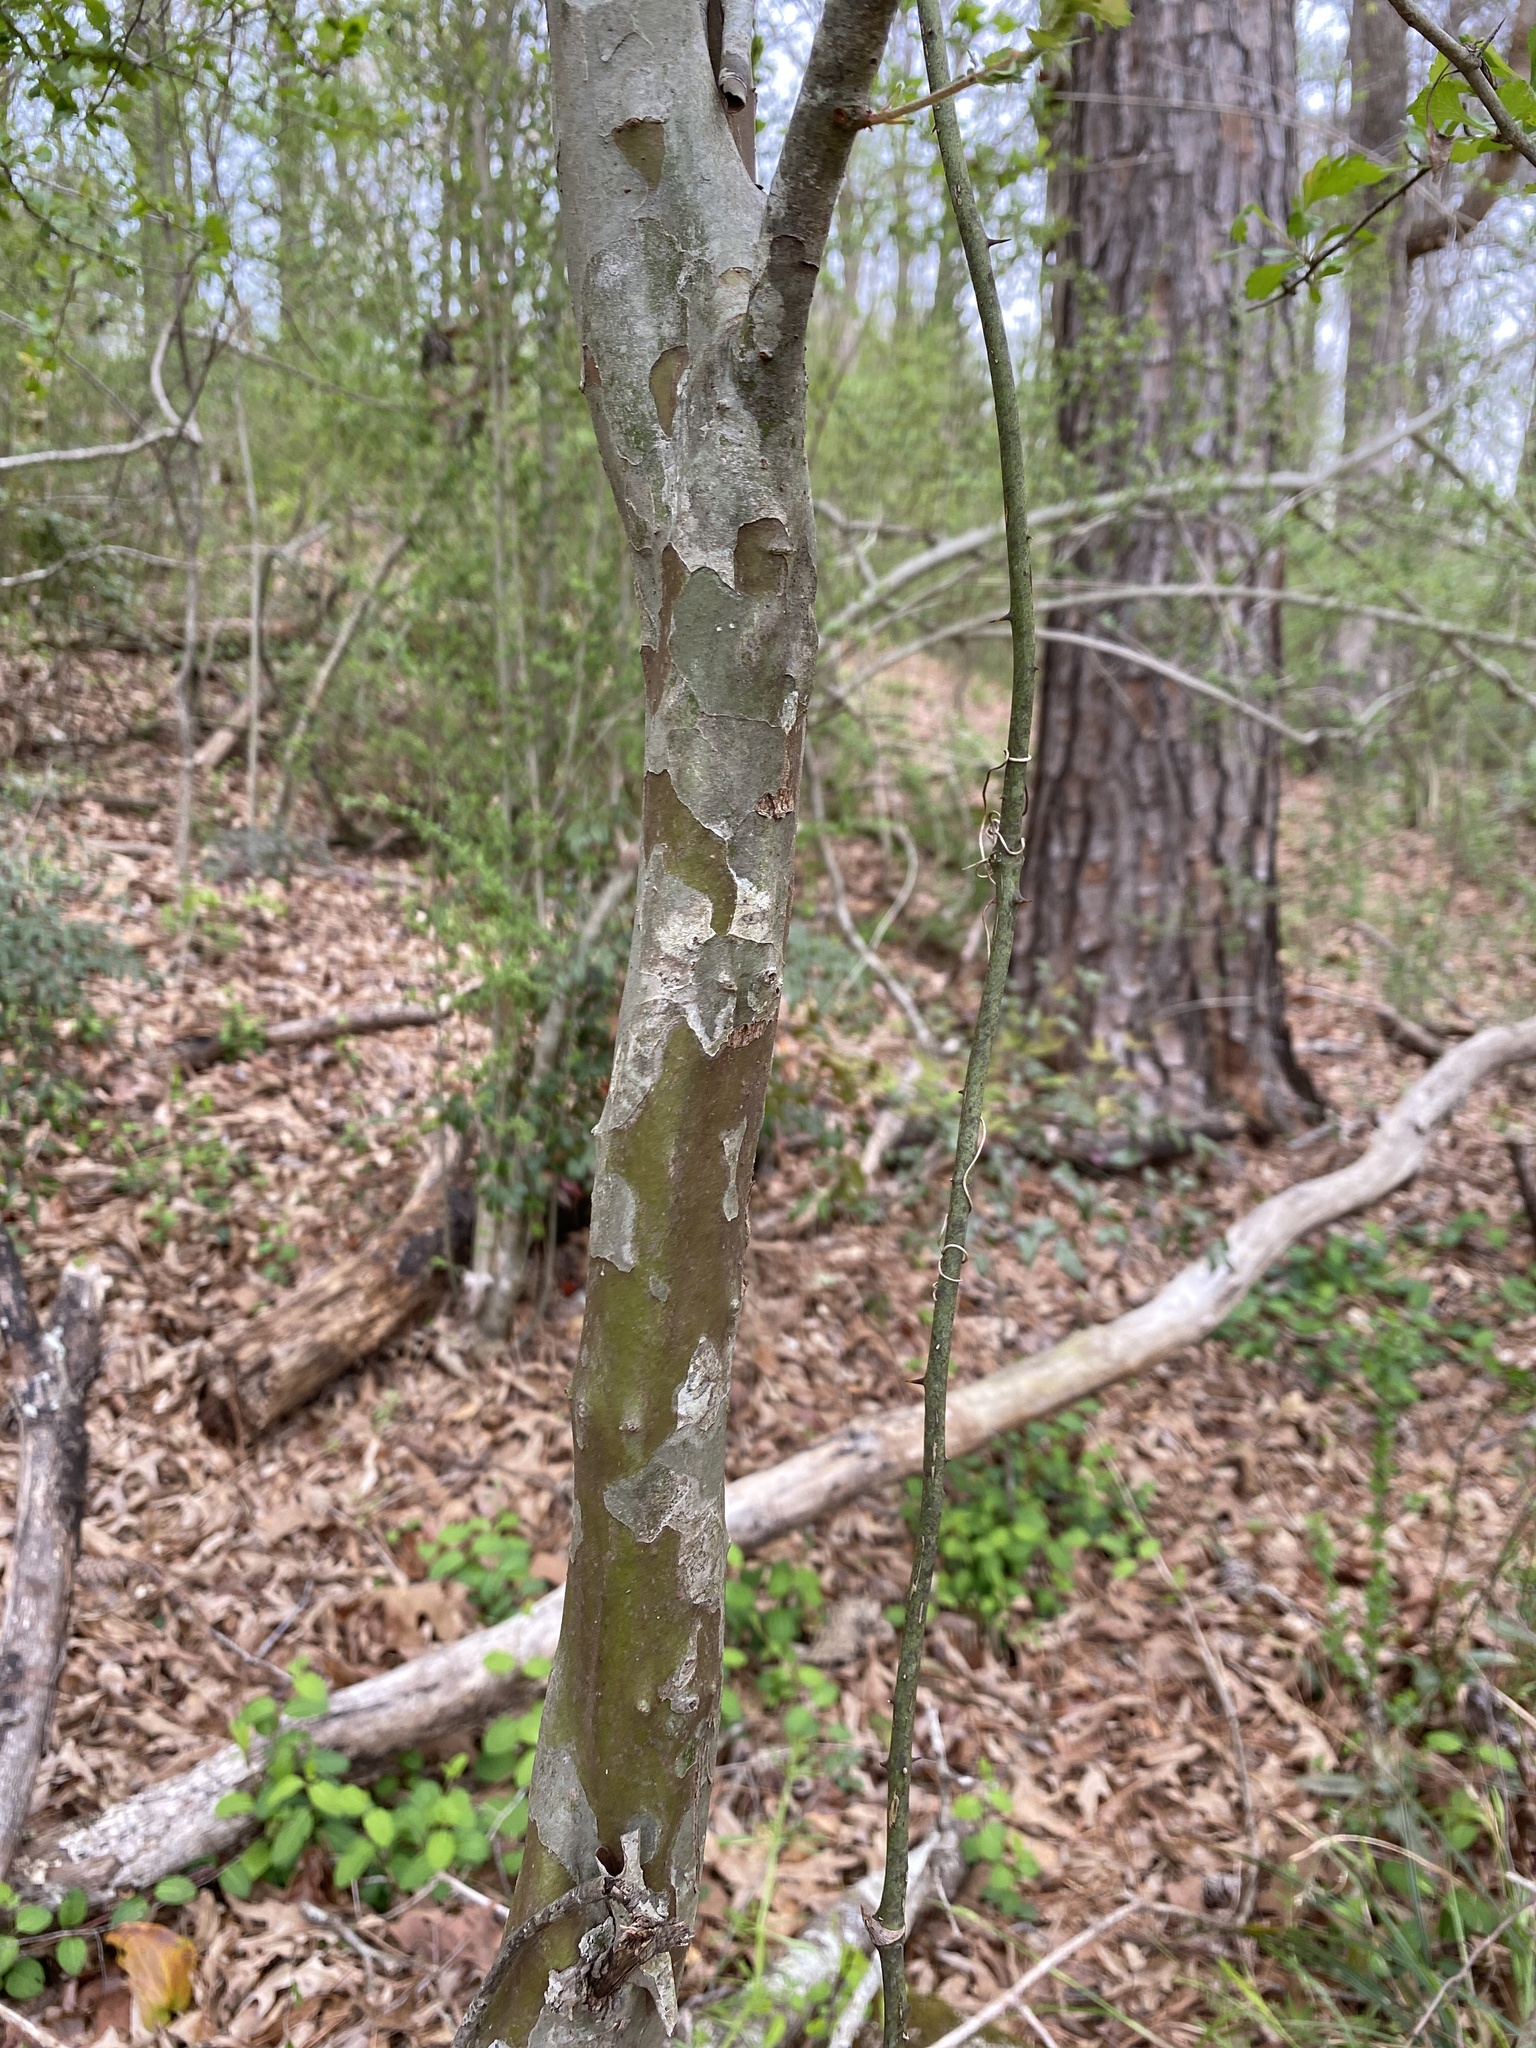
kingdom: Plantae
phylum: Tracheophyta
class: Magnoliopsida
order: Rosales
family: Rosaceae
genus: Crataegus
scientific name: Crataegus spathulata
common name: Littlehip hawthorn
